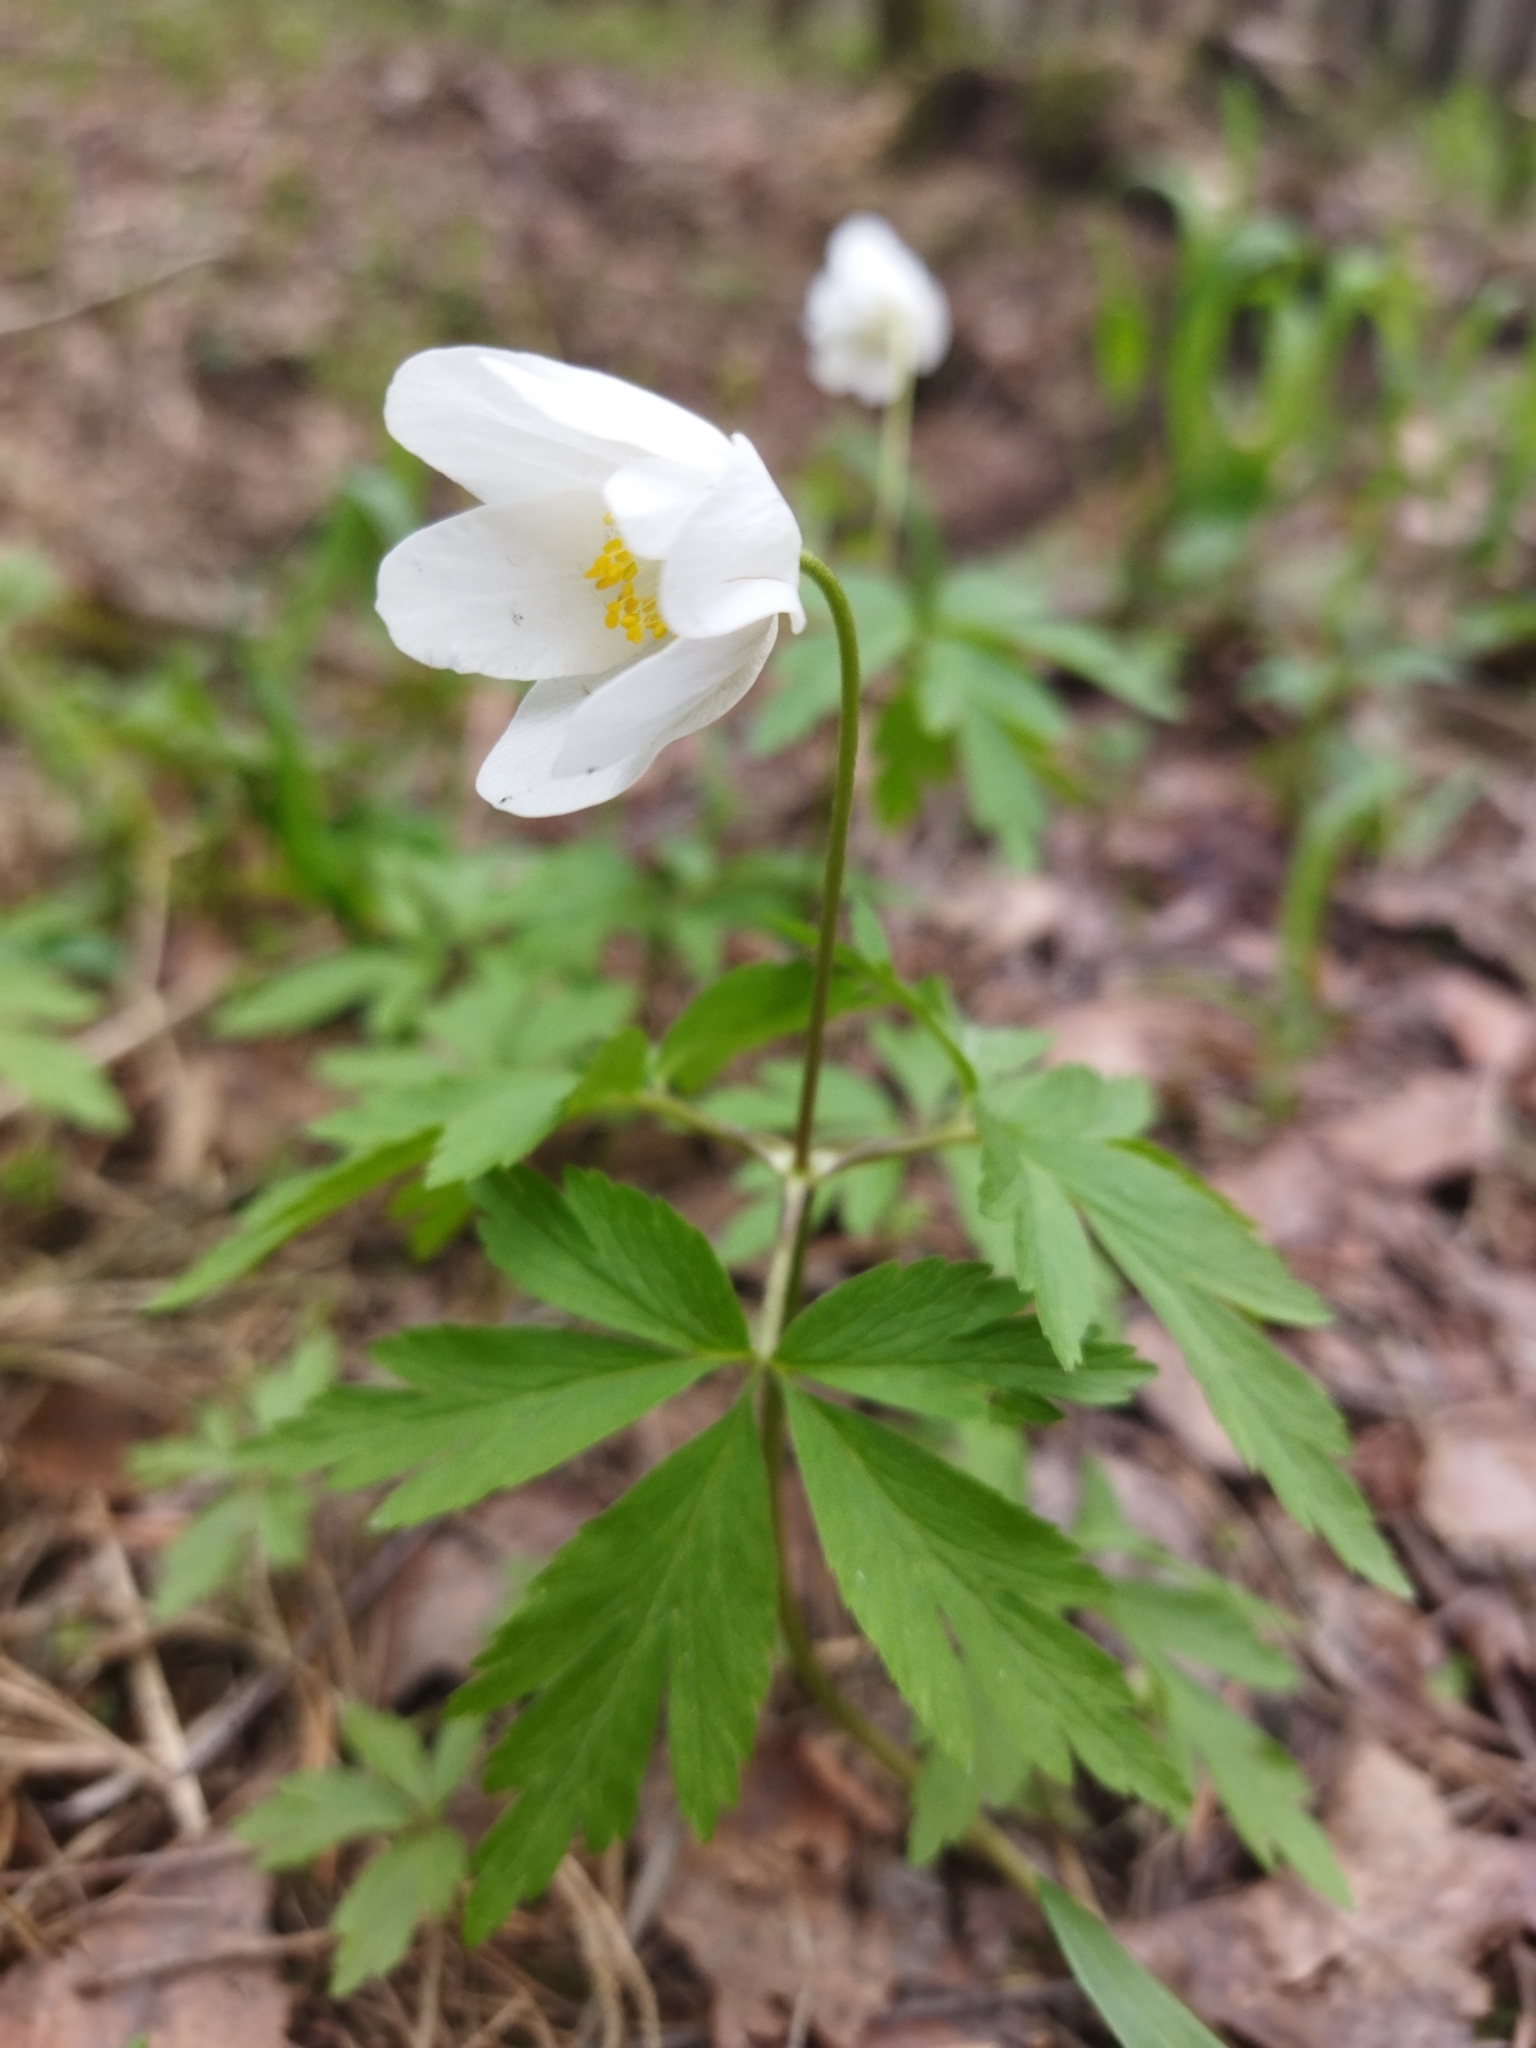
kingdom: Plantae
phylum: Tracheophyta
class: Magnoliopsida
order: Ranunculales
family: Ranunculaceae
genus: Anemone
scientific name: Anemone nemorosa
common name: Wood anemone
